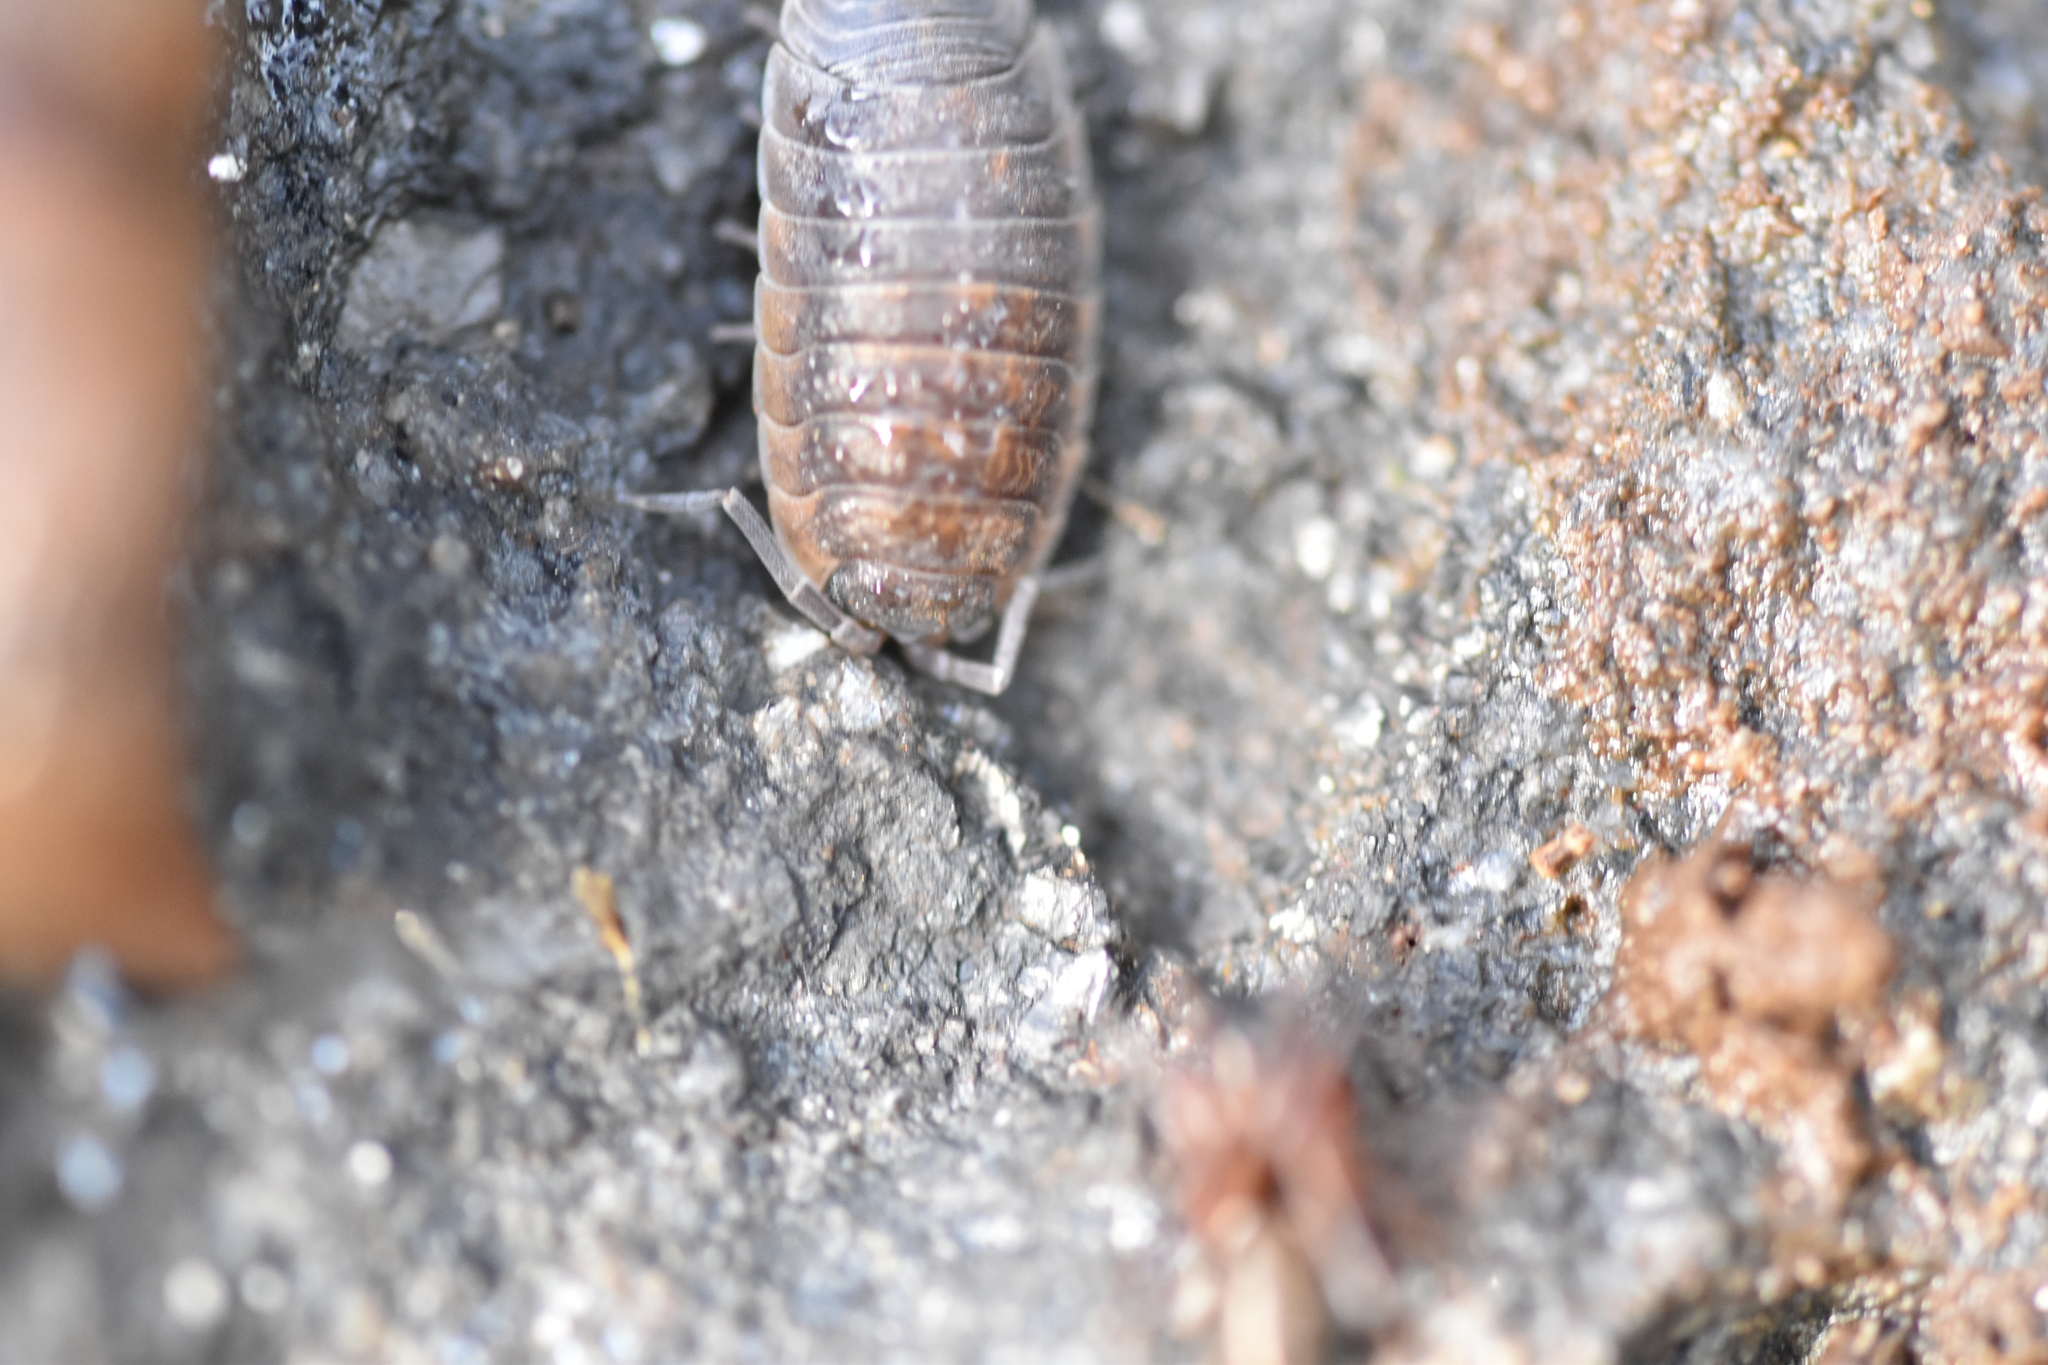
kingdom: Animalia
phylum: Arthropoda
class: Malacostraca
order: Isopoda
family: Porcellionidae
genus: Porcellio
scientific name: Porcellio scaber
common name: Common rough woodlouse
